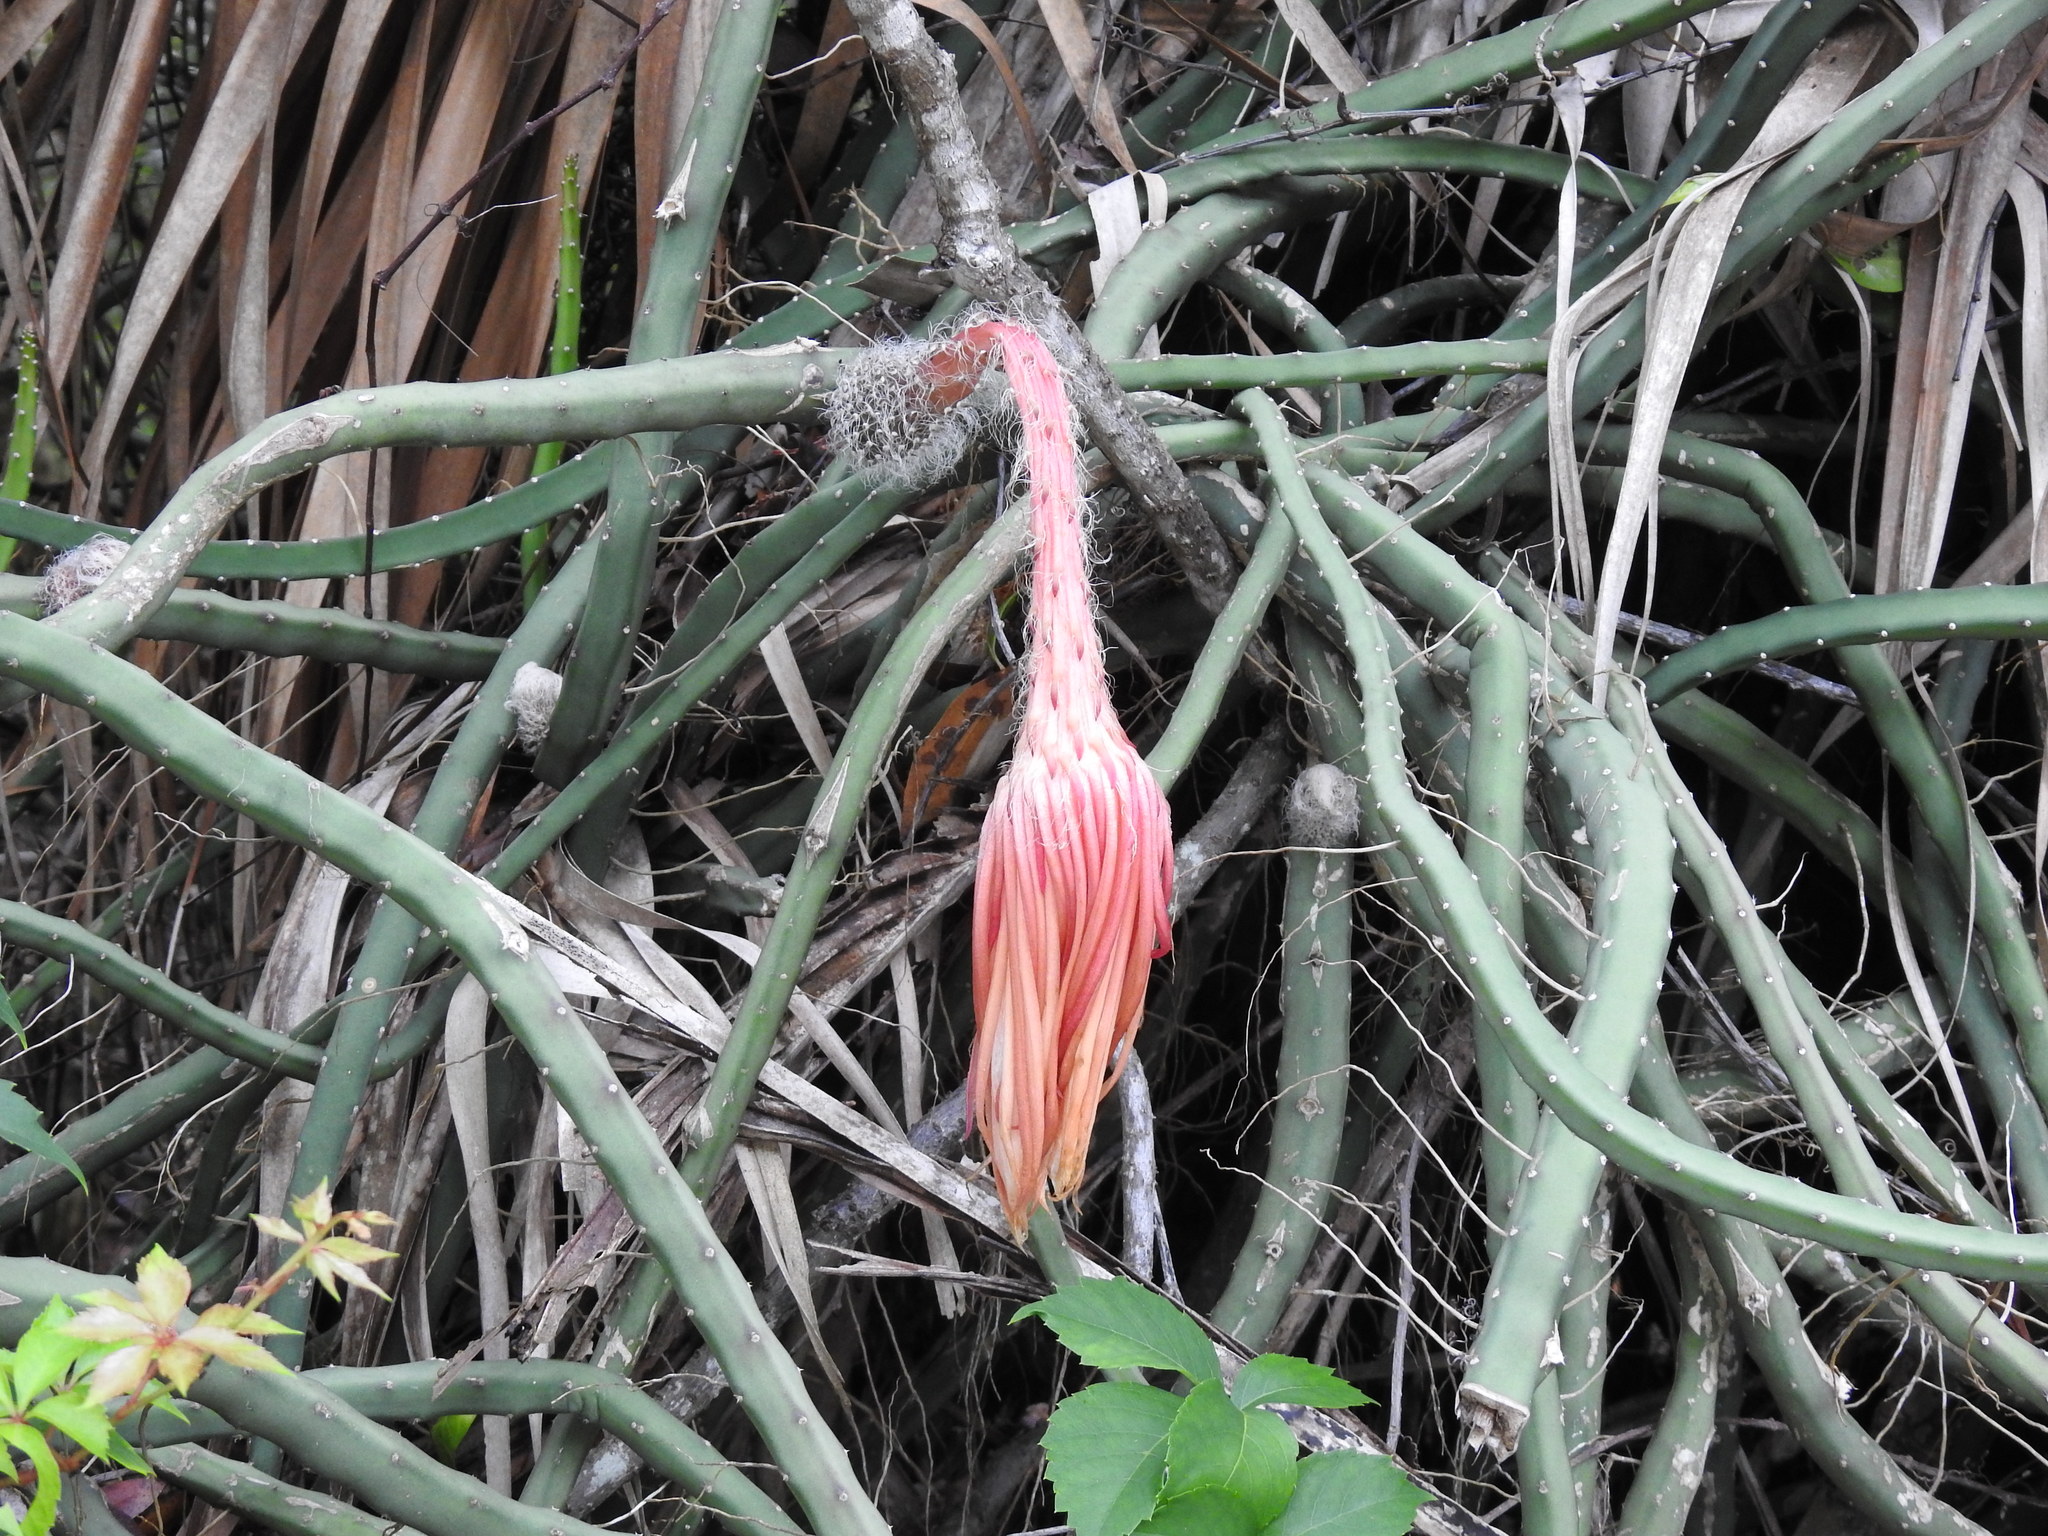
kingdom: Plantae
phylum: Tracheophyta
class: Magnoliopsida
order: Caryophyllales
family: Cactaceae
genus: Selenicereus
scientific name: Selenicereus pteranthus
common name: Princess of the night
